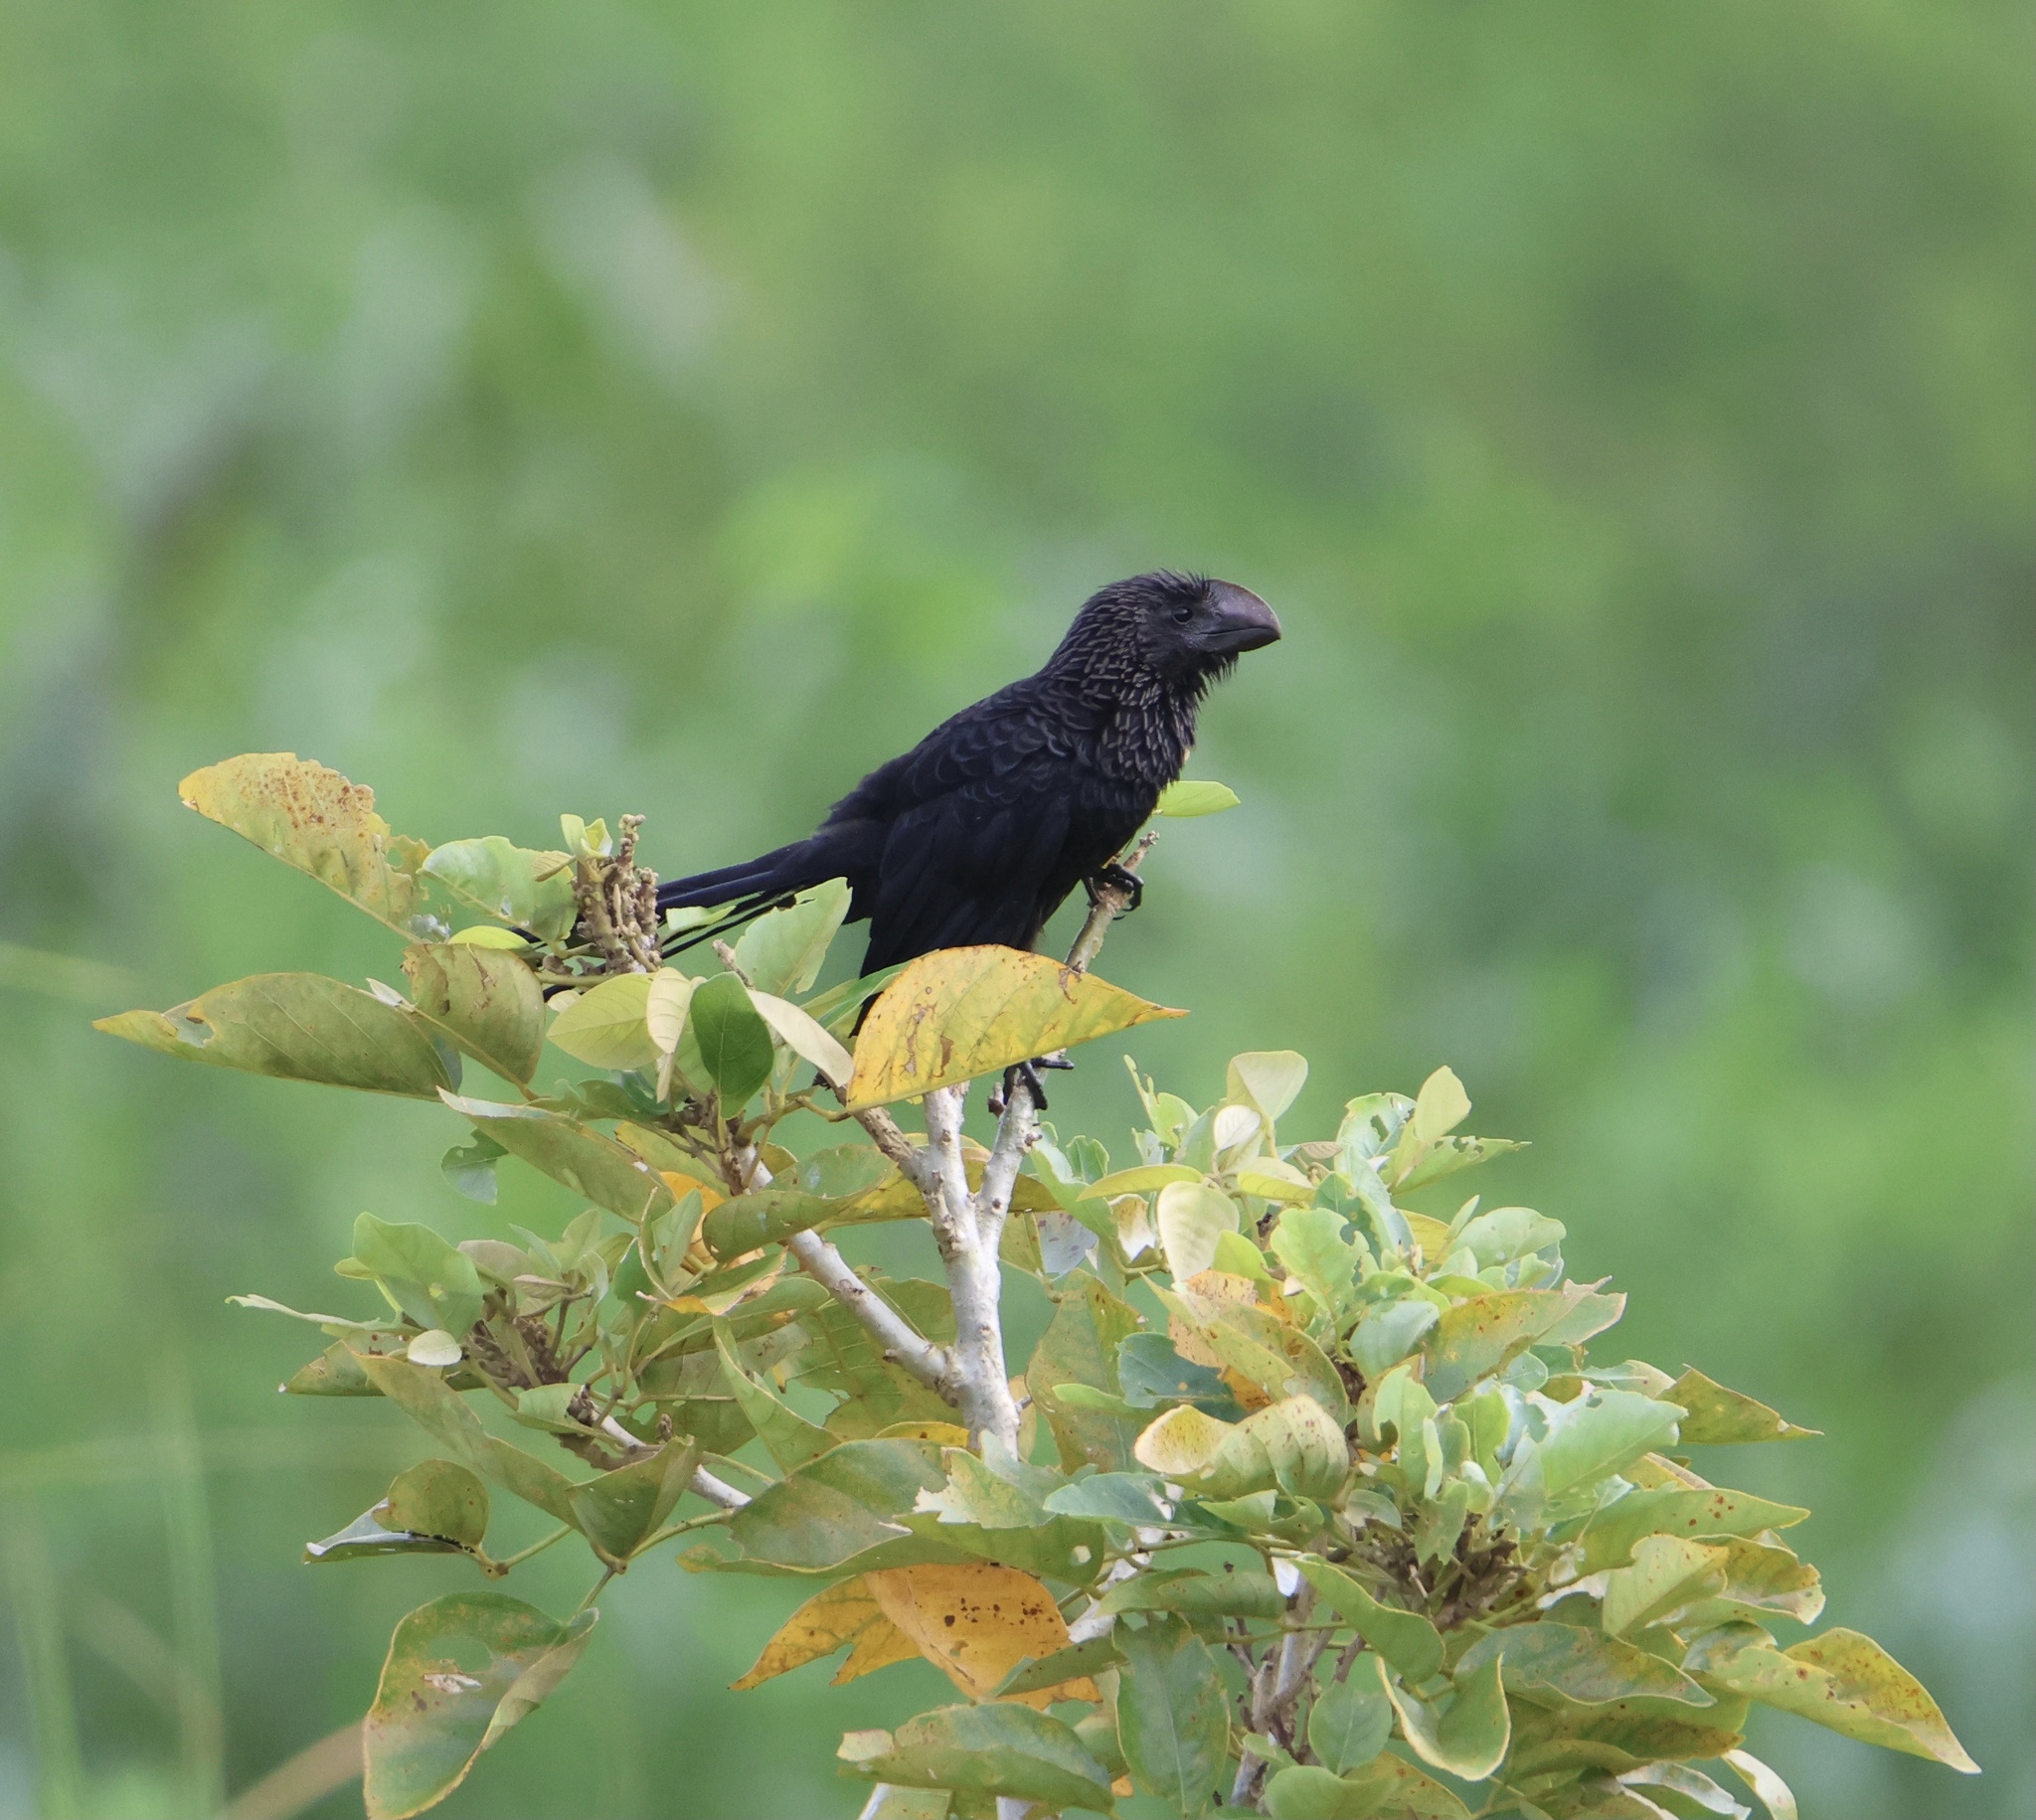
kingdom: Animalia
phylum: Chordata
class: Aves
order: Cuculiformes
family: Cuculidae
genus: Crotophaga
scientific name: Crotophaga ani
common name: Smooth-billed ani
